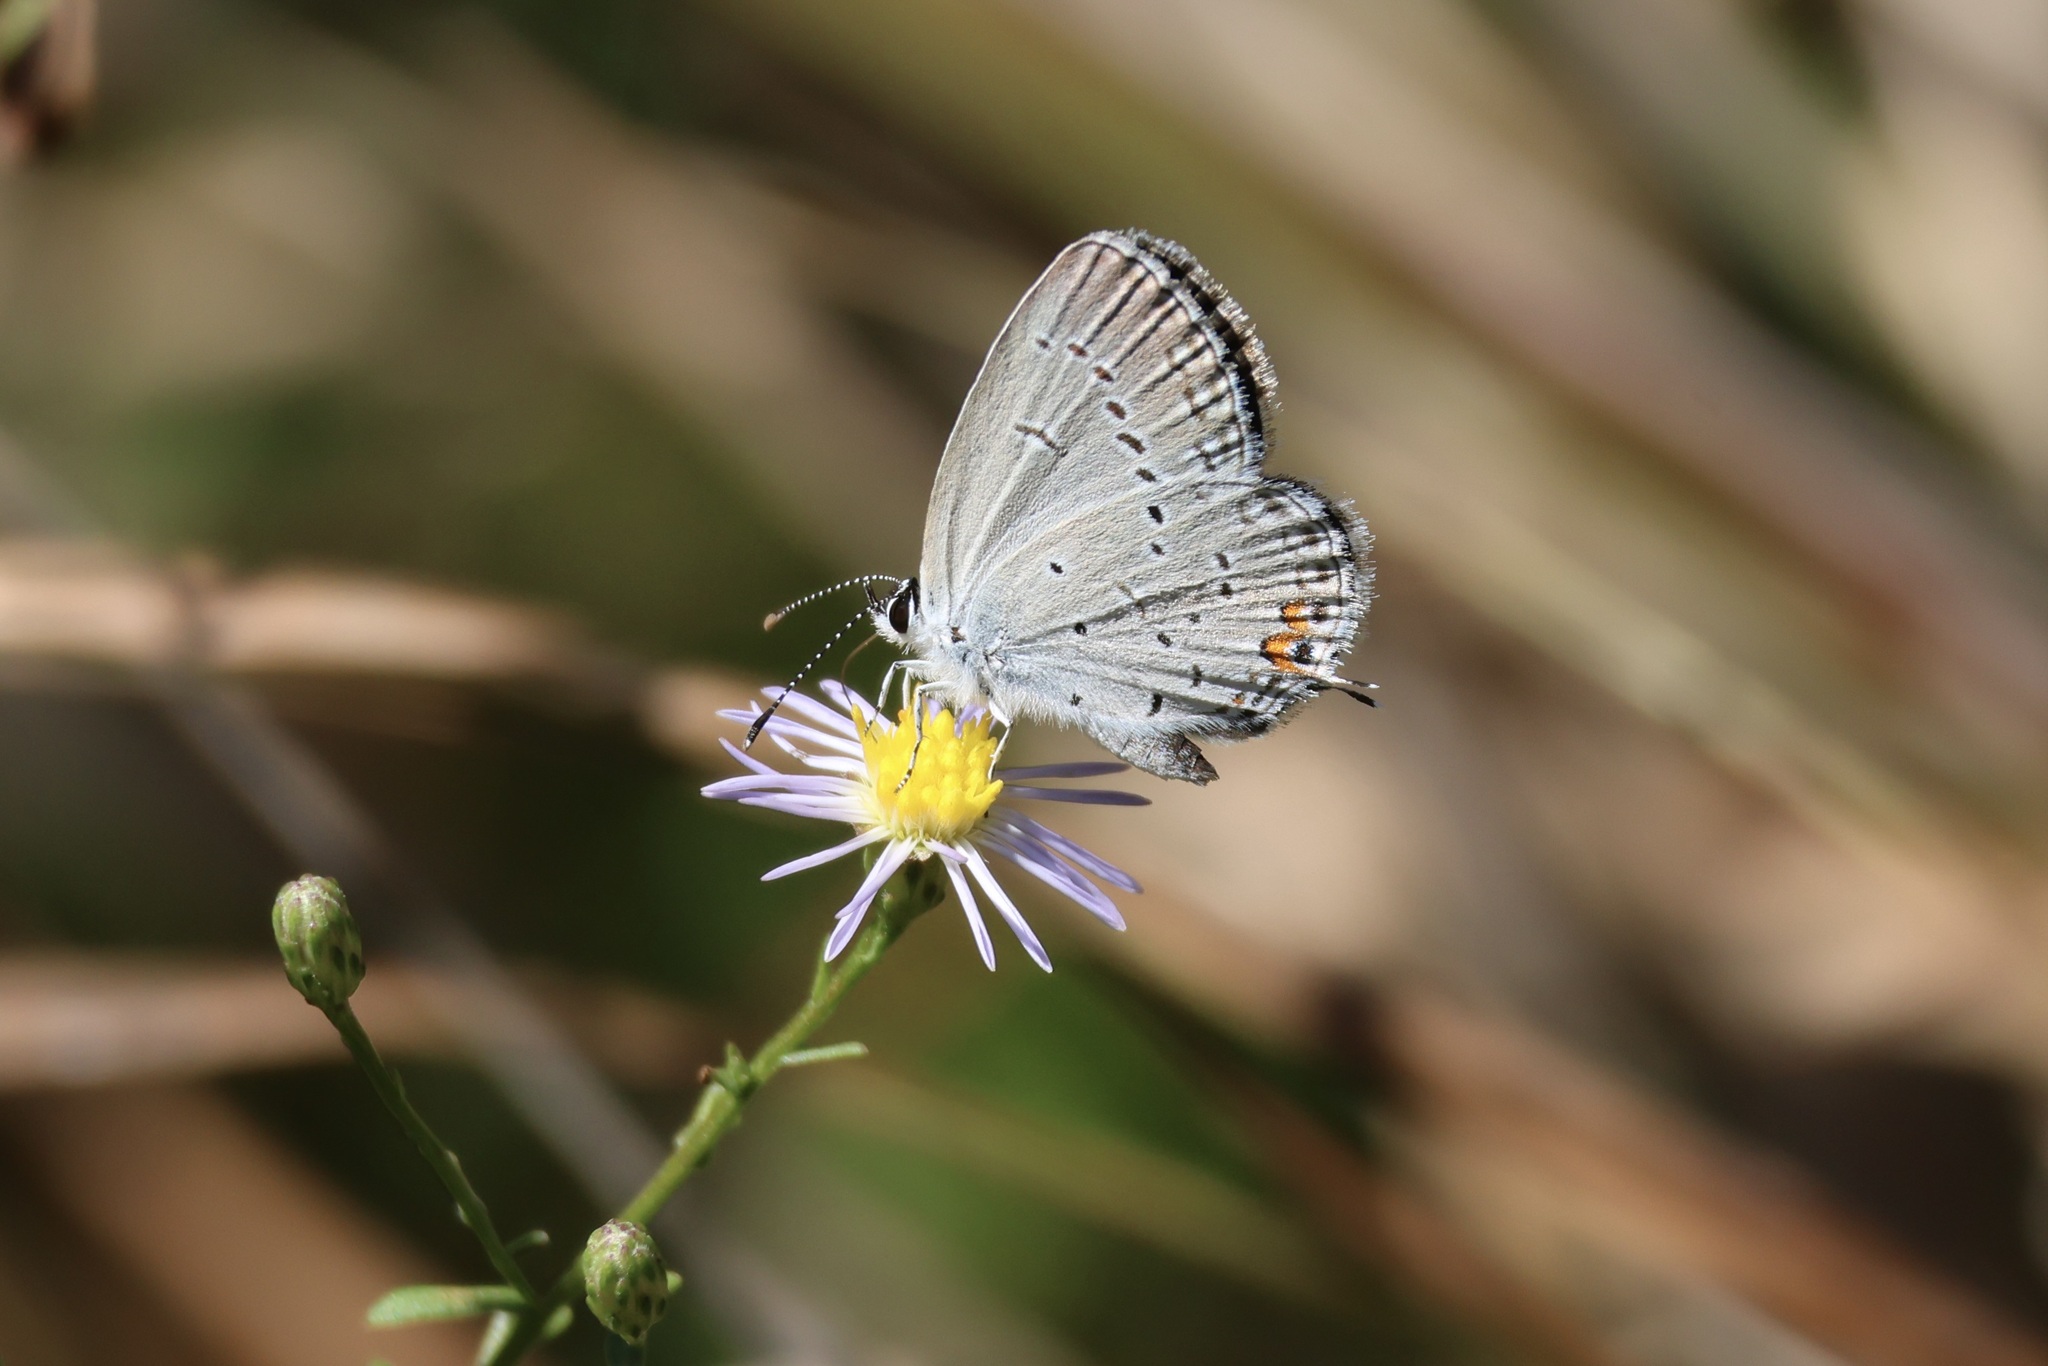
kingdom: Animalia
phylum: Arthropoda
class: Insecta
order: Lepidoptera
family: Lycaenidae
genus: Elkalyce
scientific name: Elkalyce comyntas
